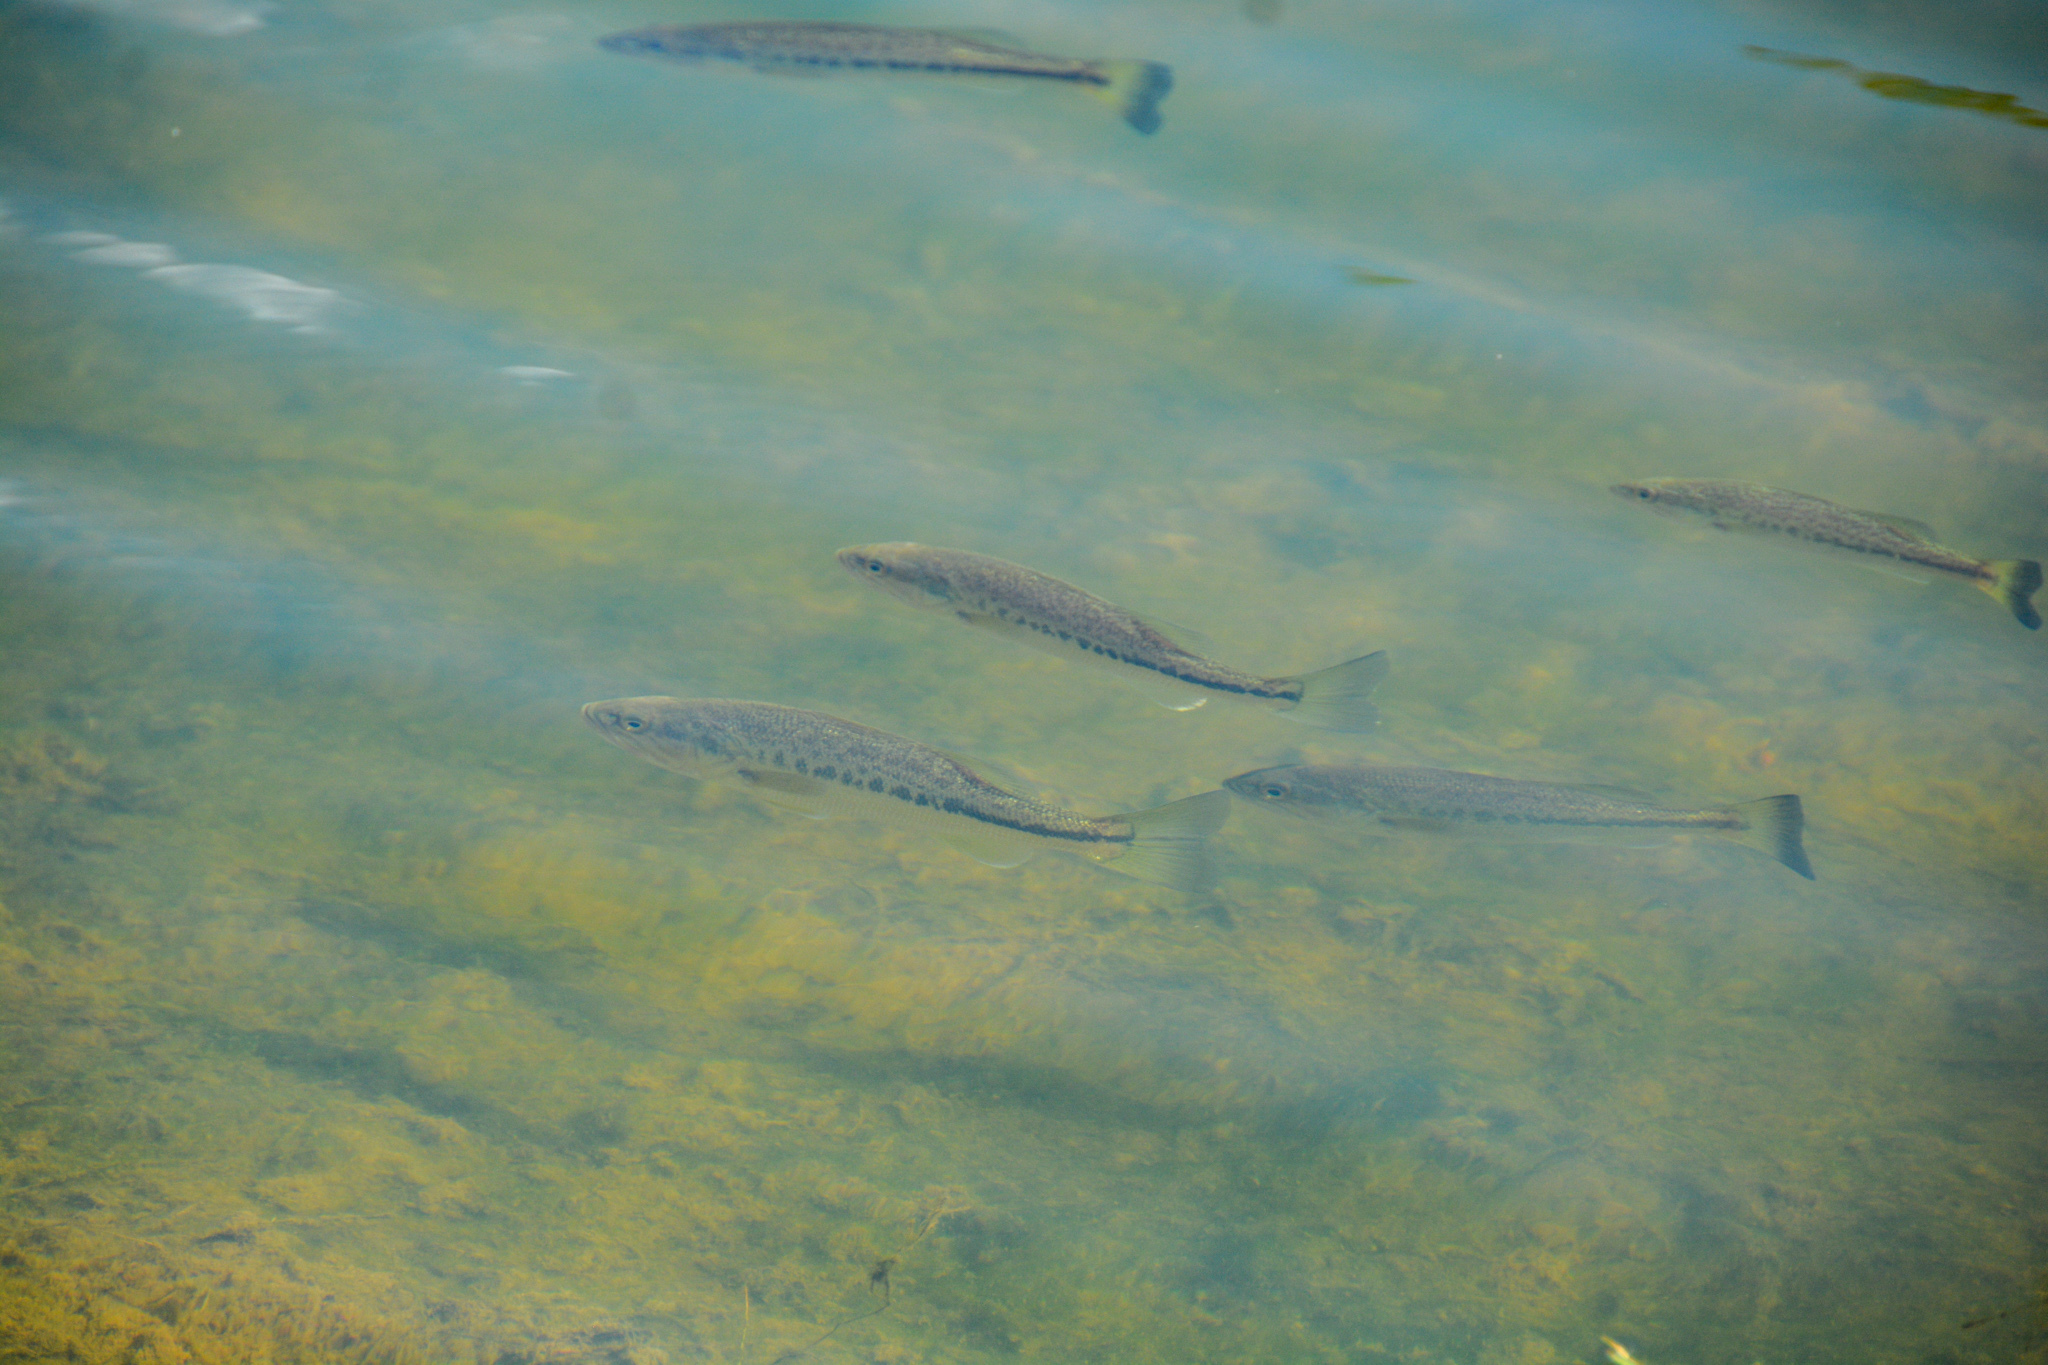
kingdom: Animalia
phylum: Chordata
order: Perciformes
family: Centrarchidae
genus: Micropterus
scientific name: Micropterus
